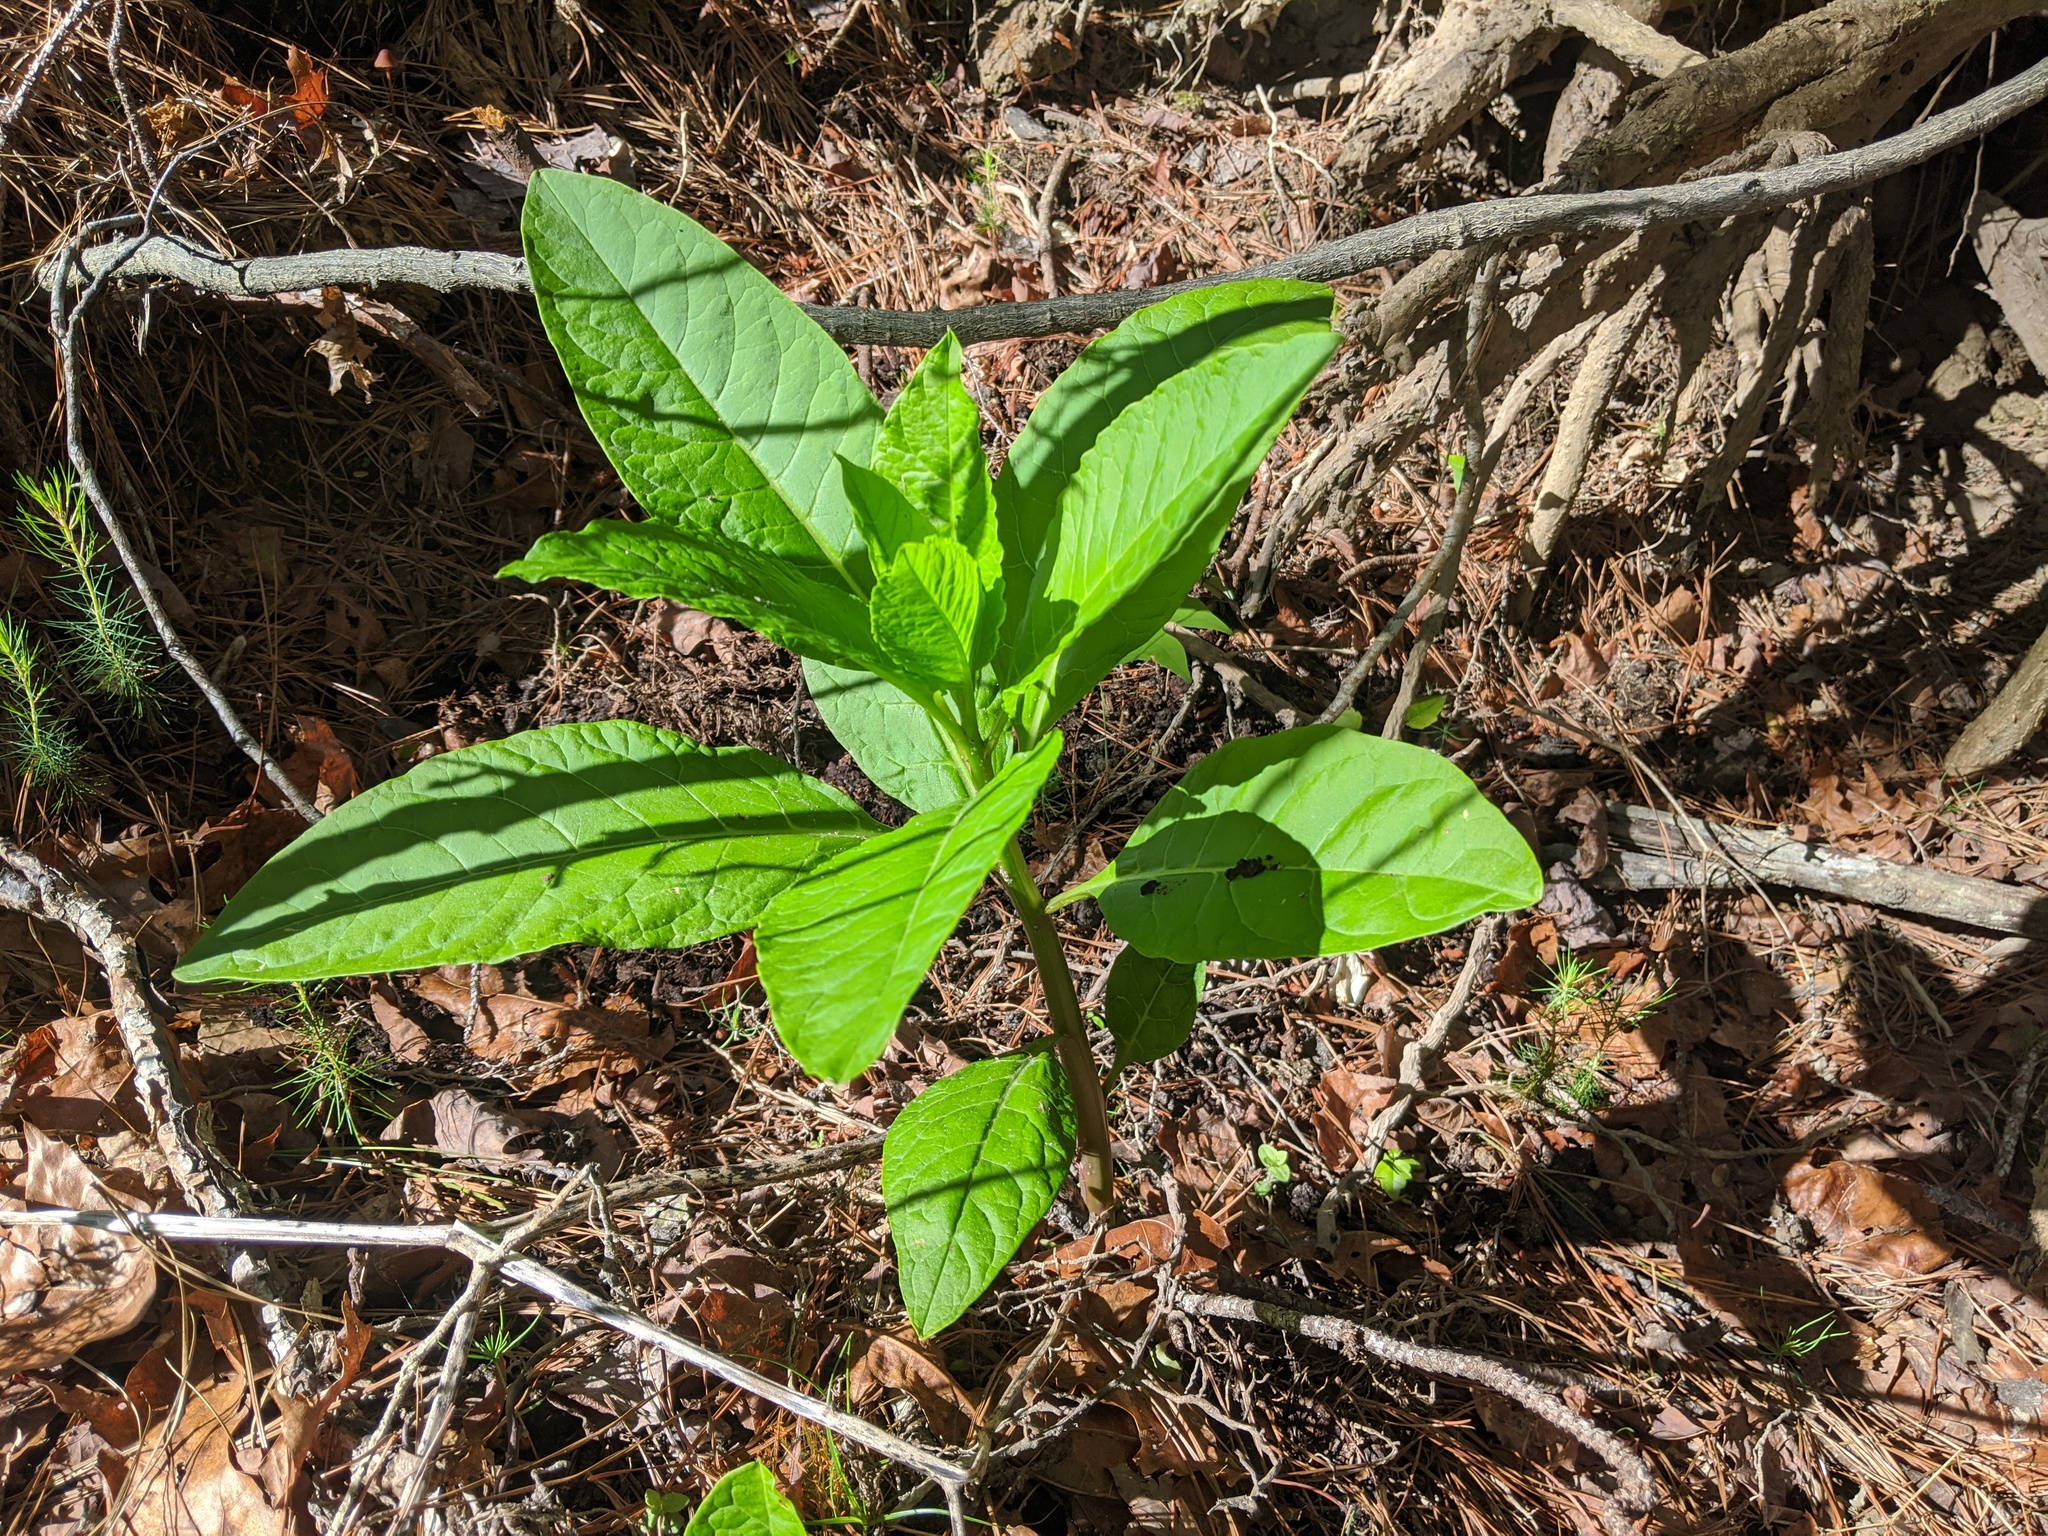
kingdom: Plantae
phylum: Tracheophyta
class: Magnoliopsida
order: Caryophyllales
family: Phytolaccaceae
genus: Phytolacca
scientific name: Phytolacca americana
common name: American pokeweed
